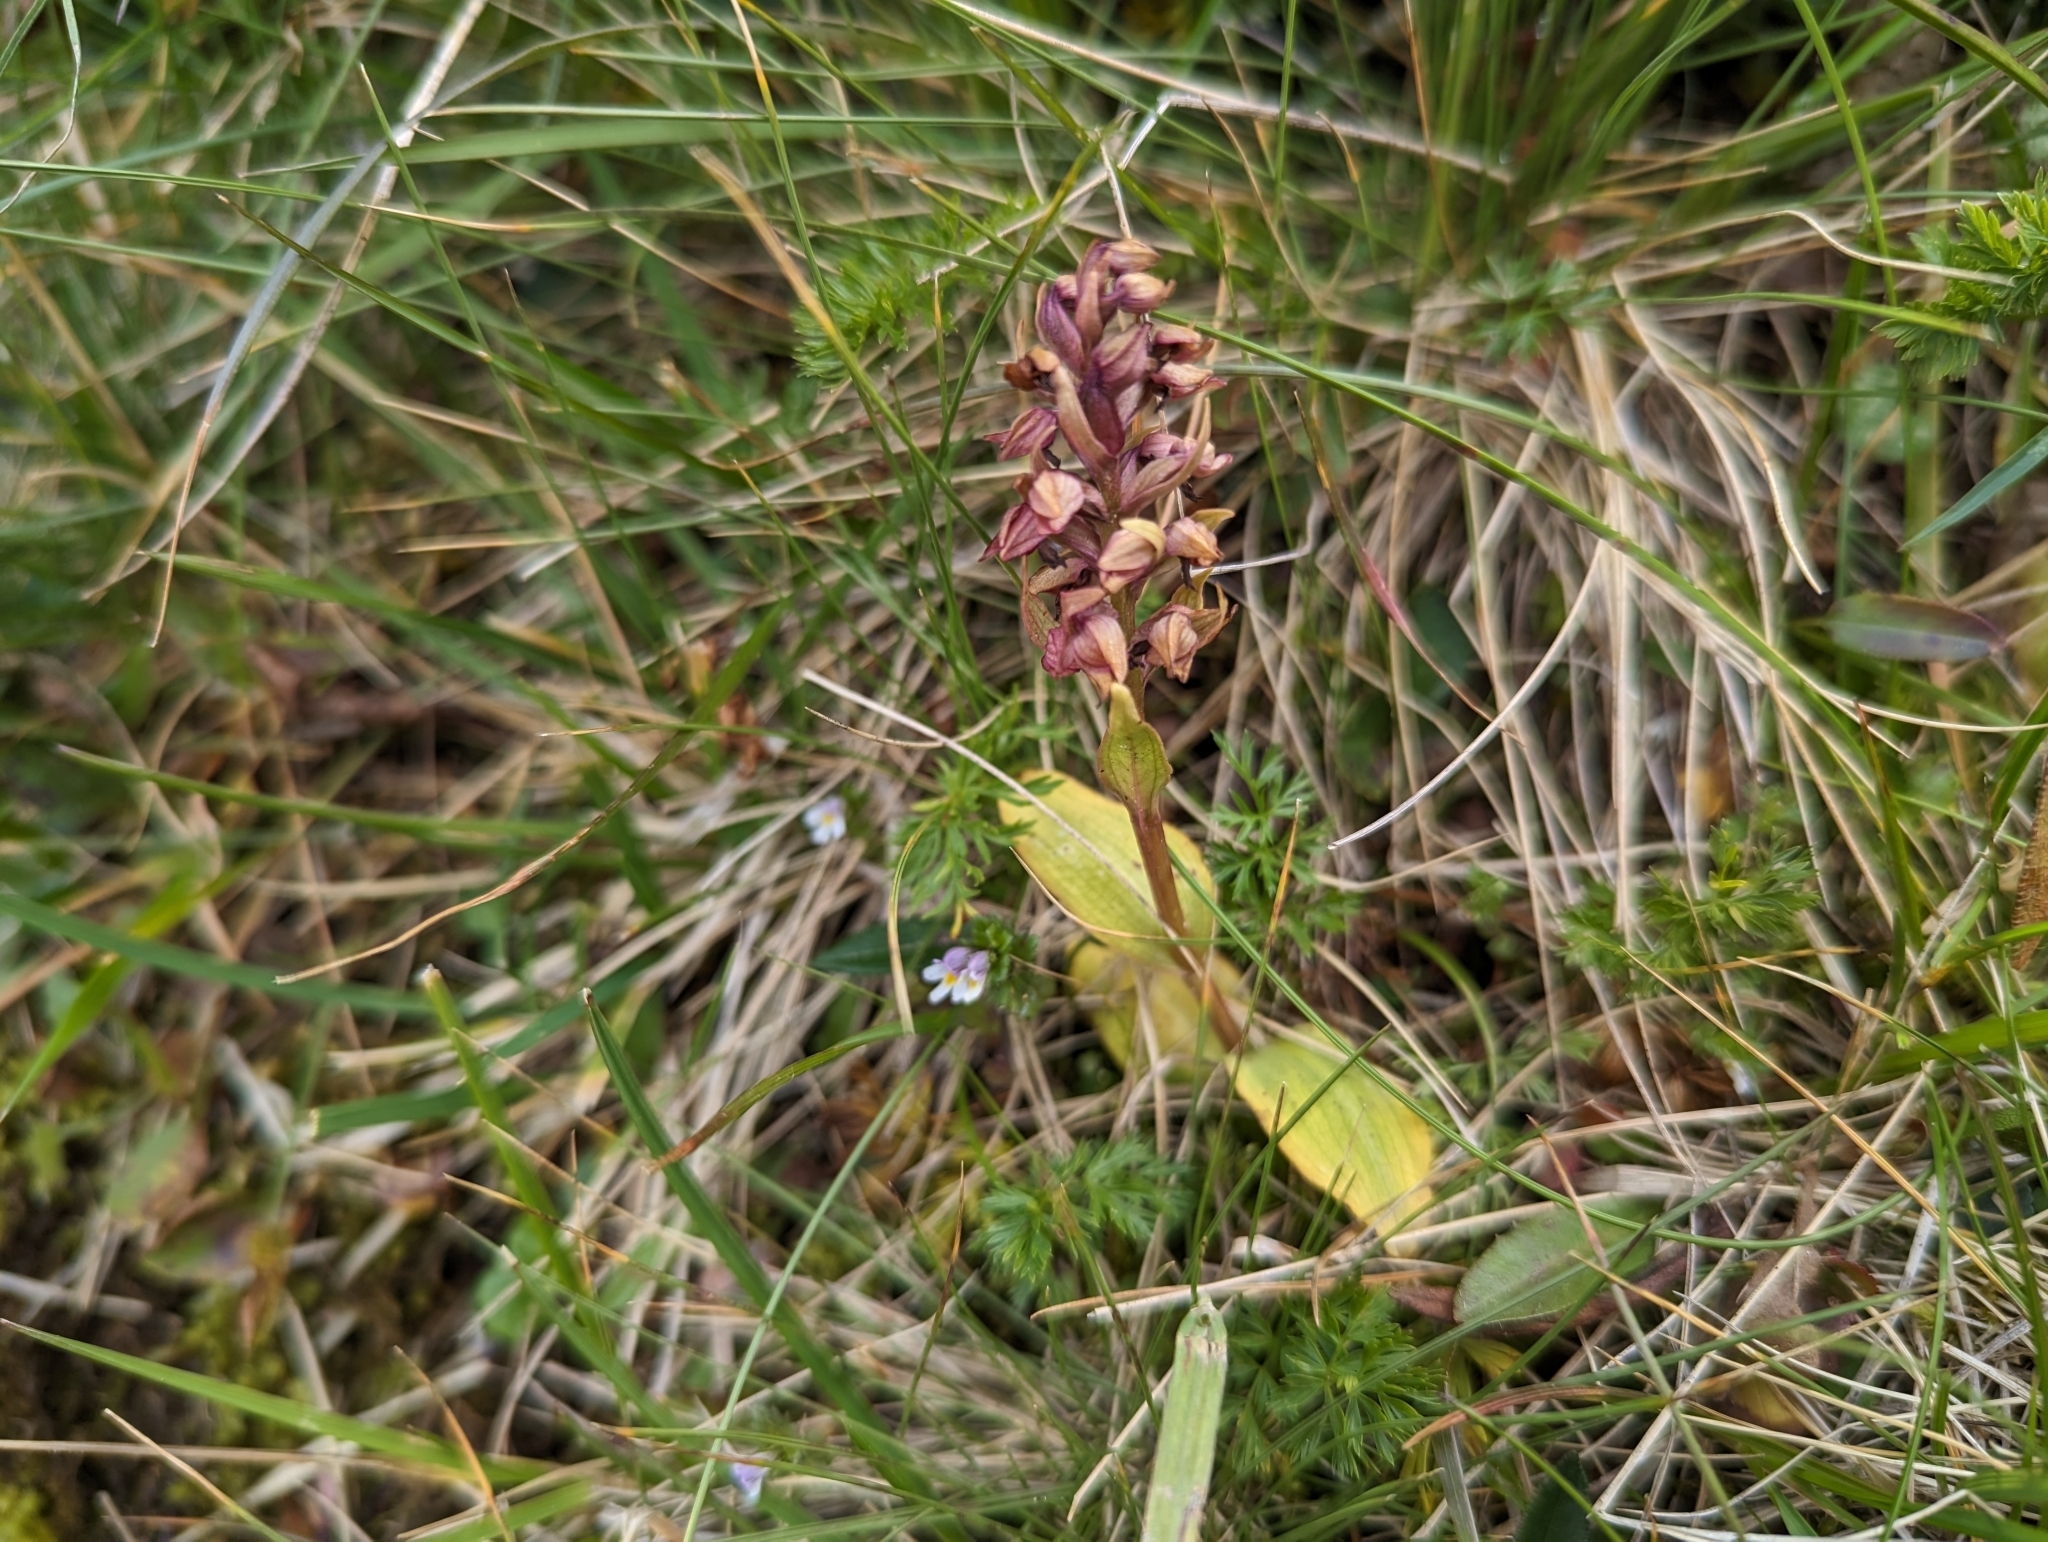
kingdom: Plantae
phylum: Tracheophyta
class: Liliopsida
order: Asparagales
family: Orchidaceae
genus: Dactylorhiza
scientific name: Dactylorhiza viridis
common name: Longbract frog orchid
